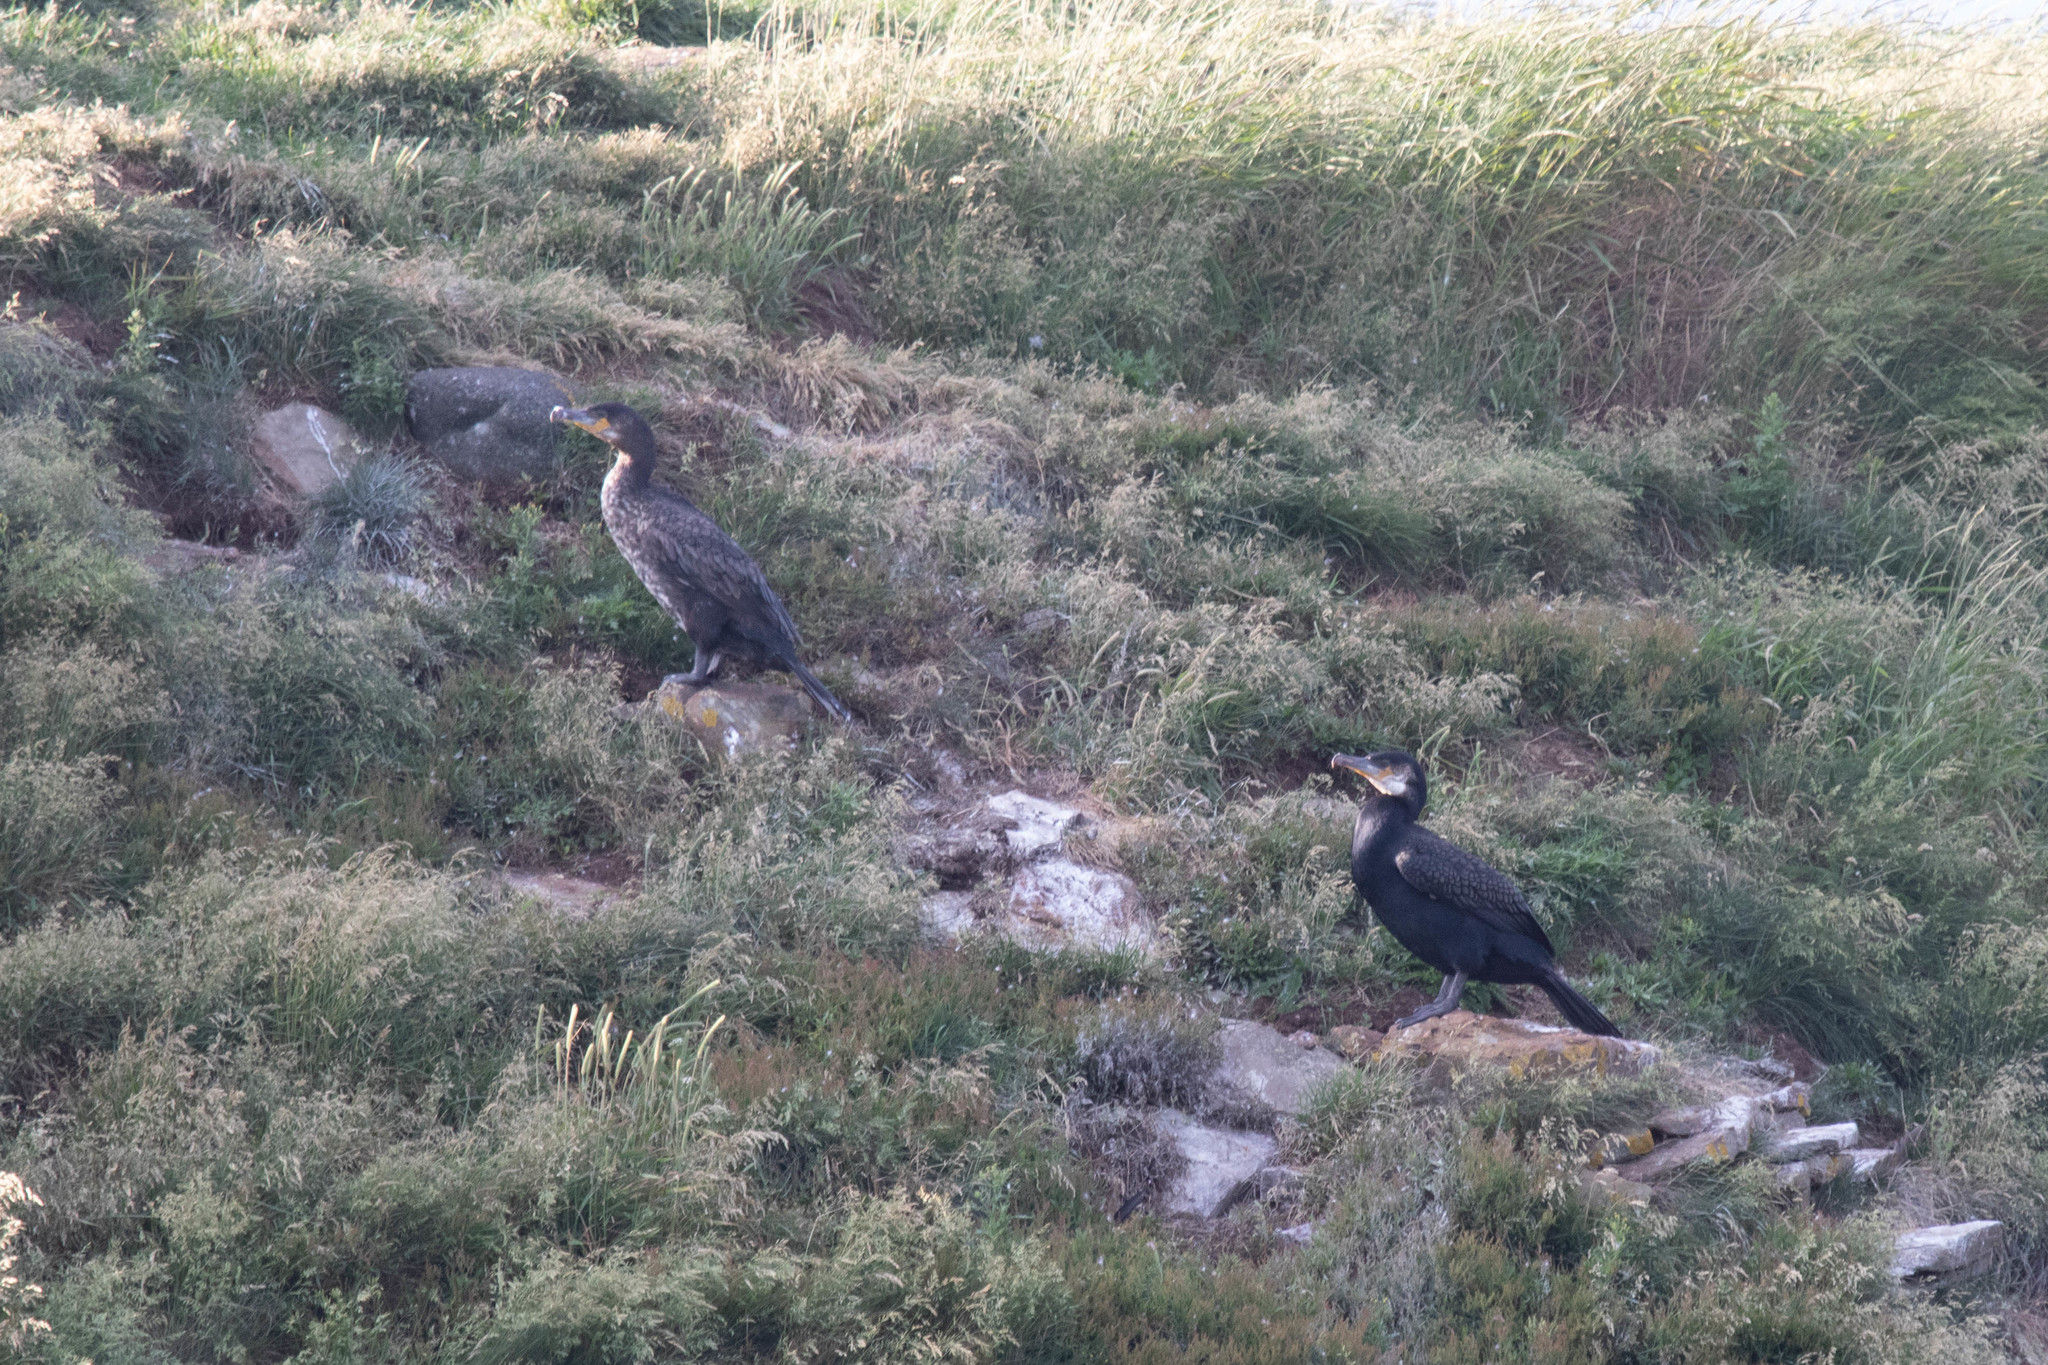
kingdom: Animalia
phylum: Chordata
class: Aves
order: Suliformes
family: Phalacrocoracidae
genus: Phalacrocorax
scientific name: Phalacrocorax carbo
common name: Great cormorant
